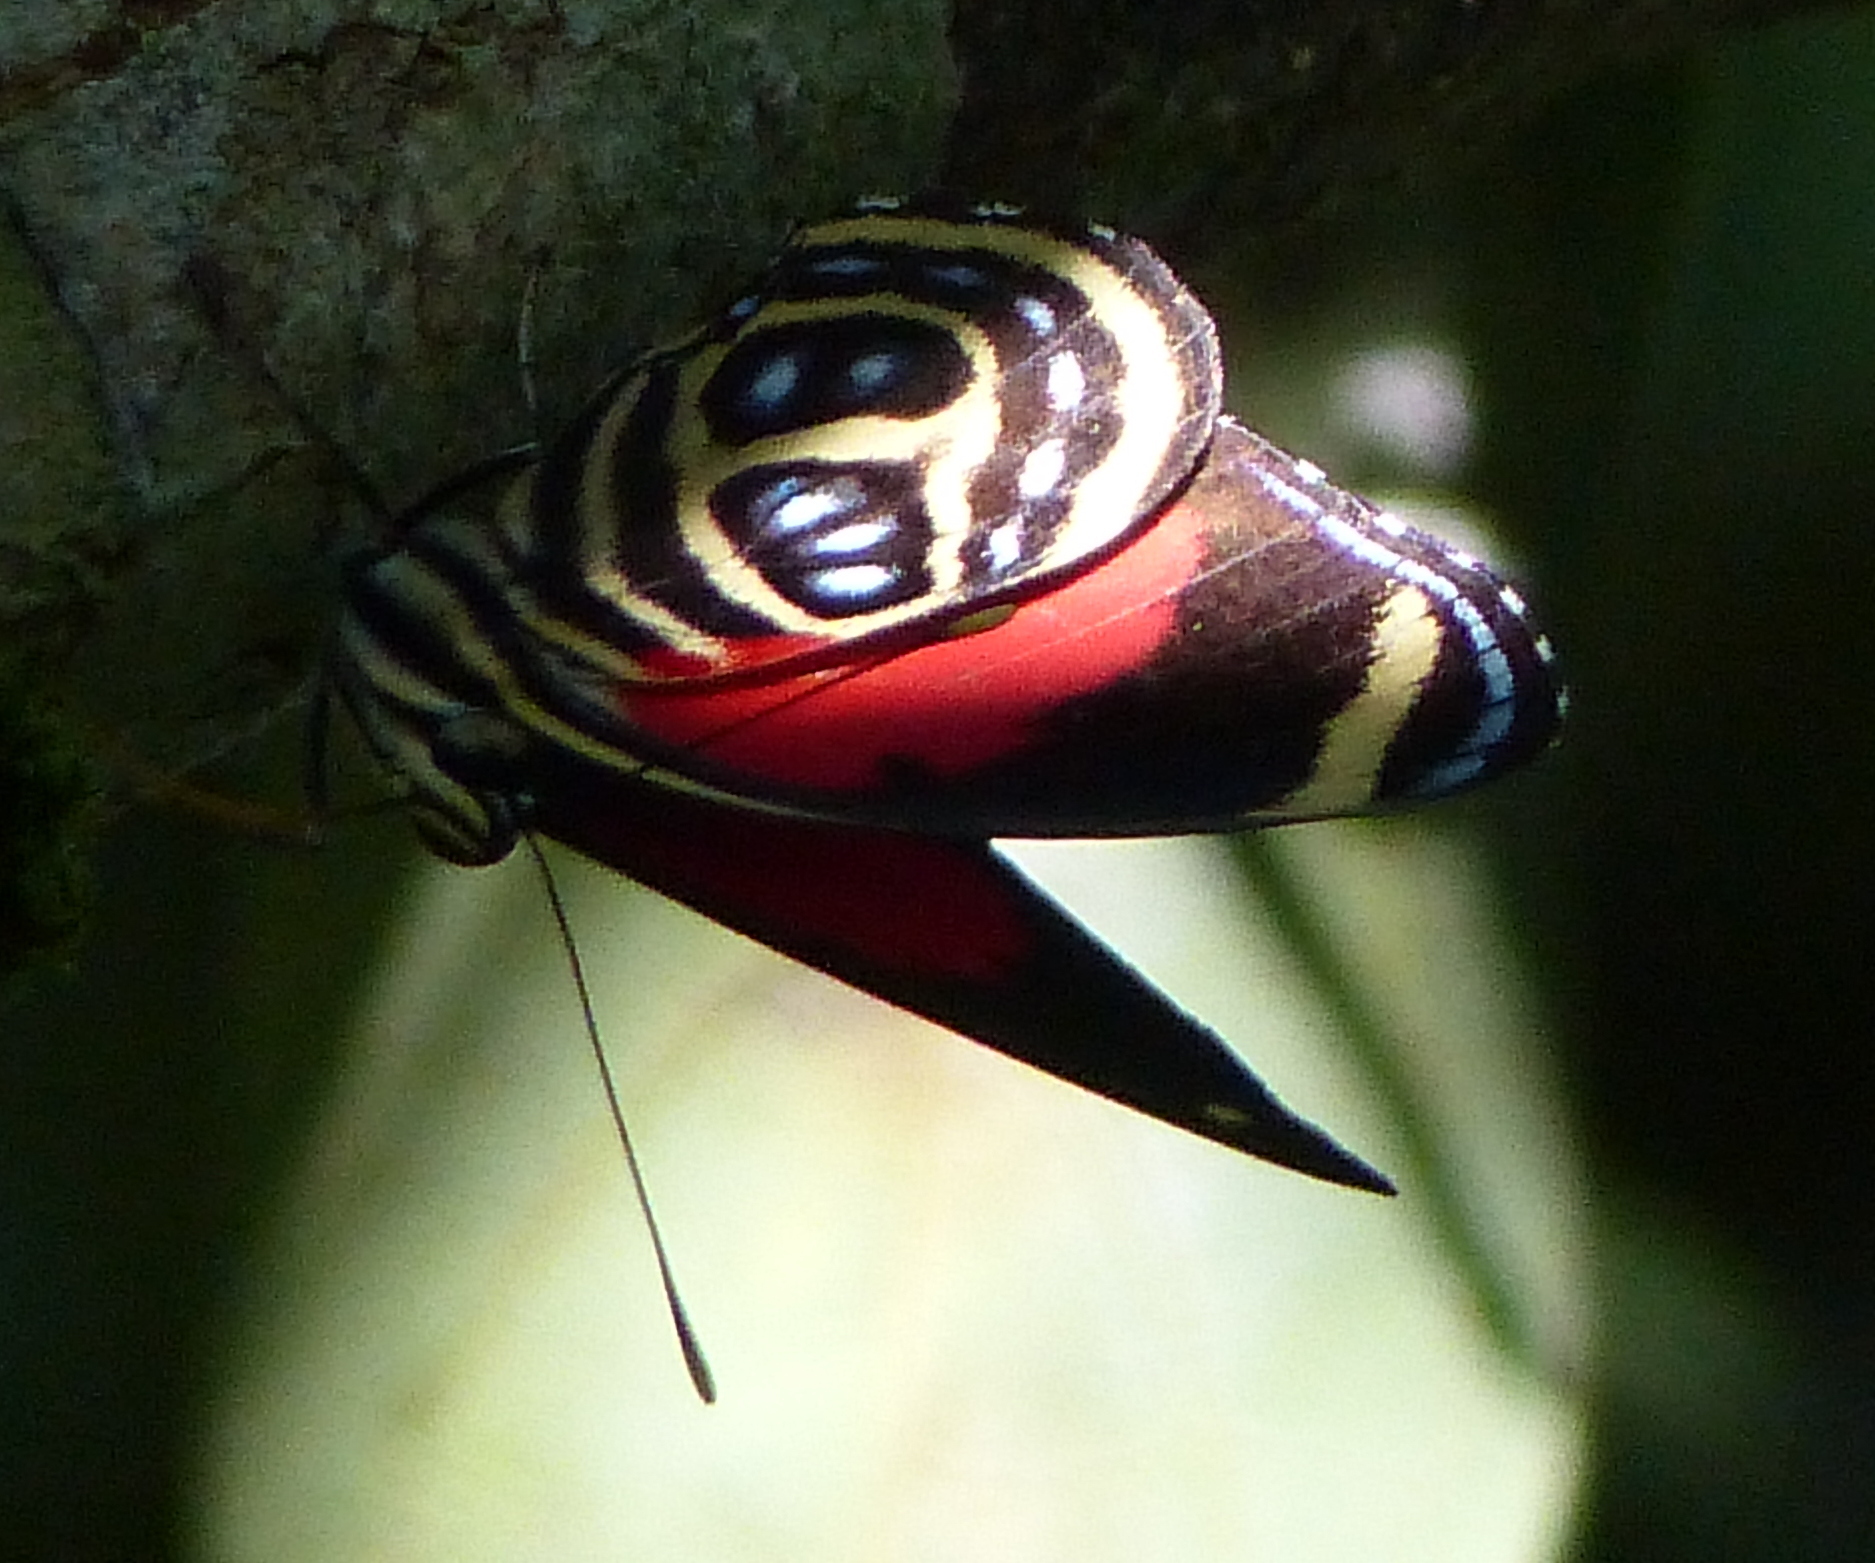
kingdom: Animalia
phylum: Arthropoda
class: Insecta
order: Lepidoptera
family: Nymphalidae
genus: Catagramma
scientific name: Catagramma pygas
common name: Godart's numberwing
